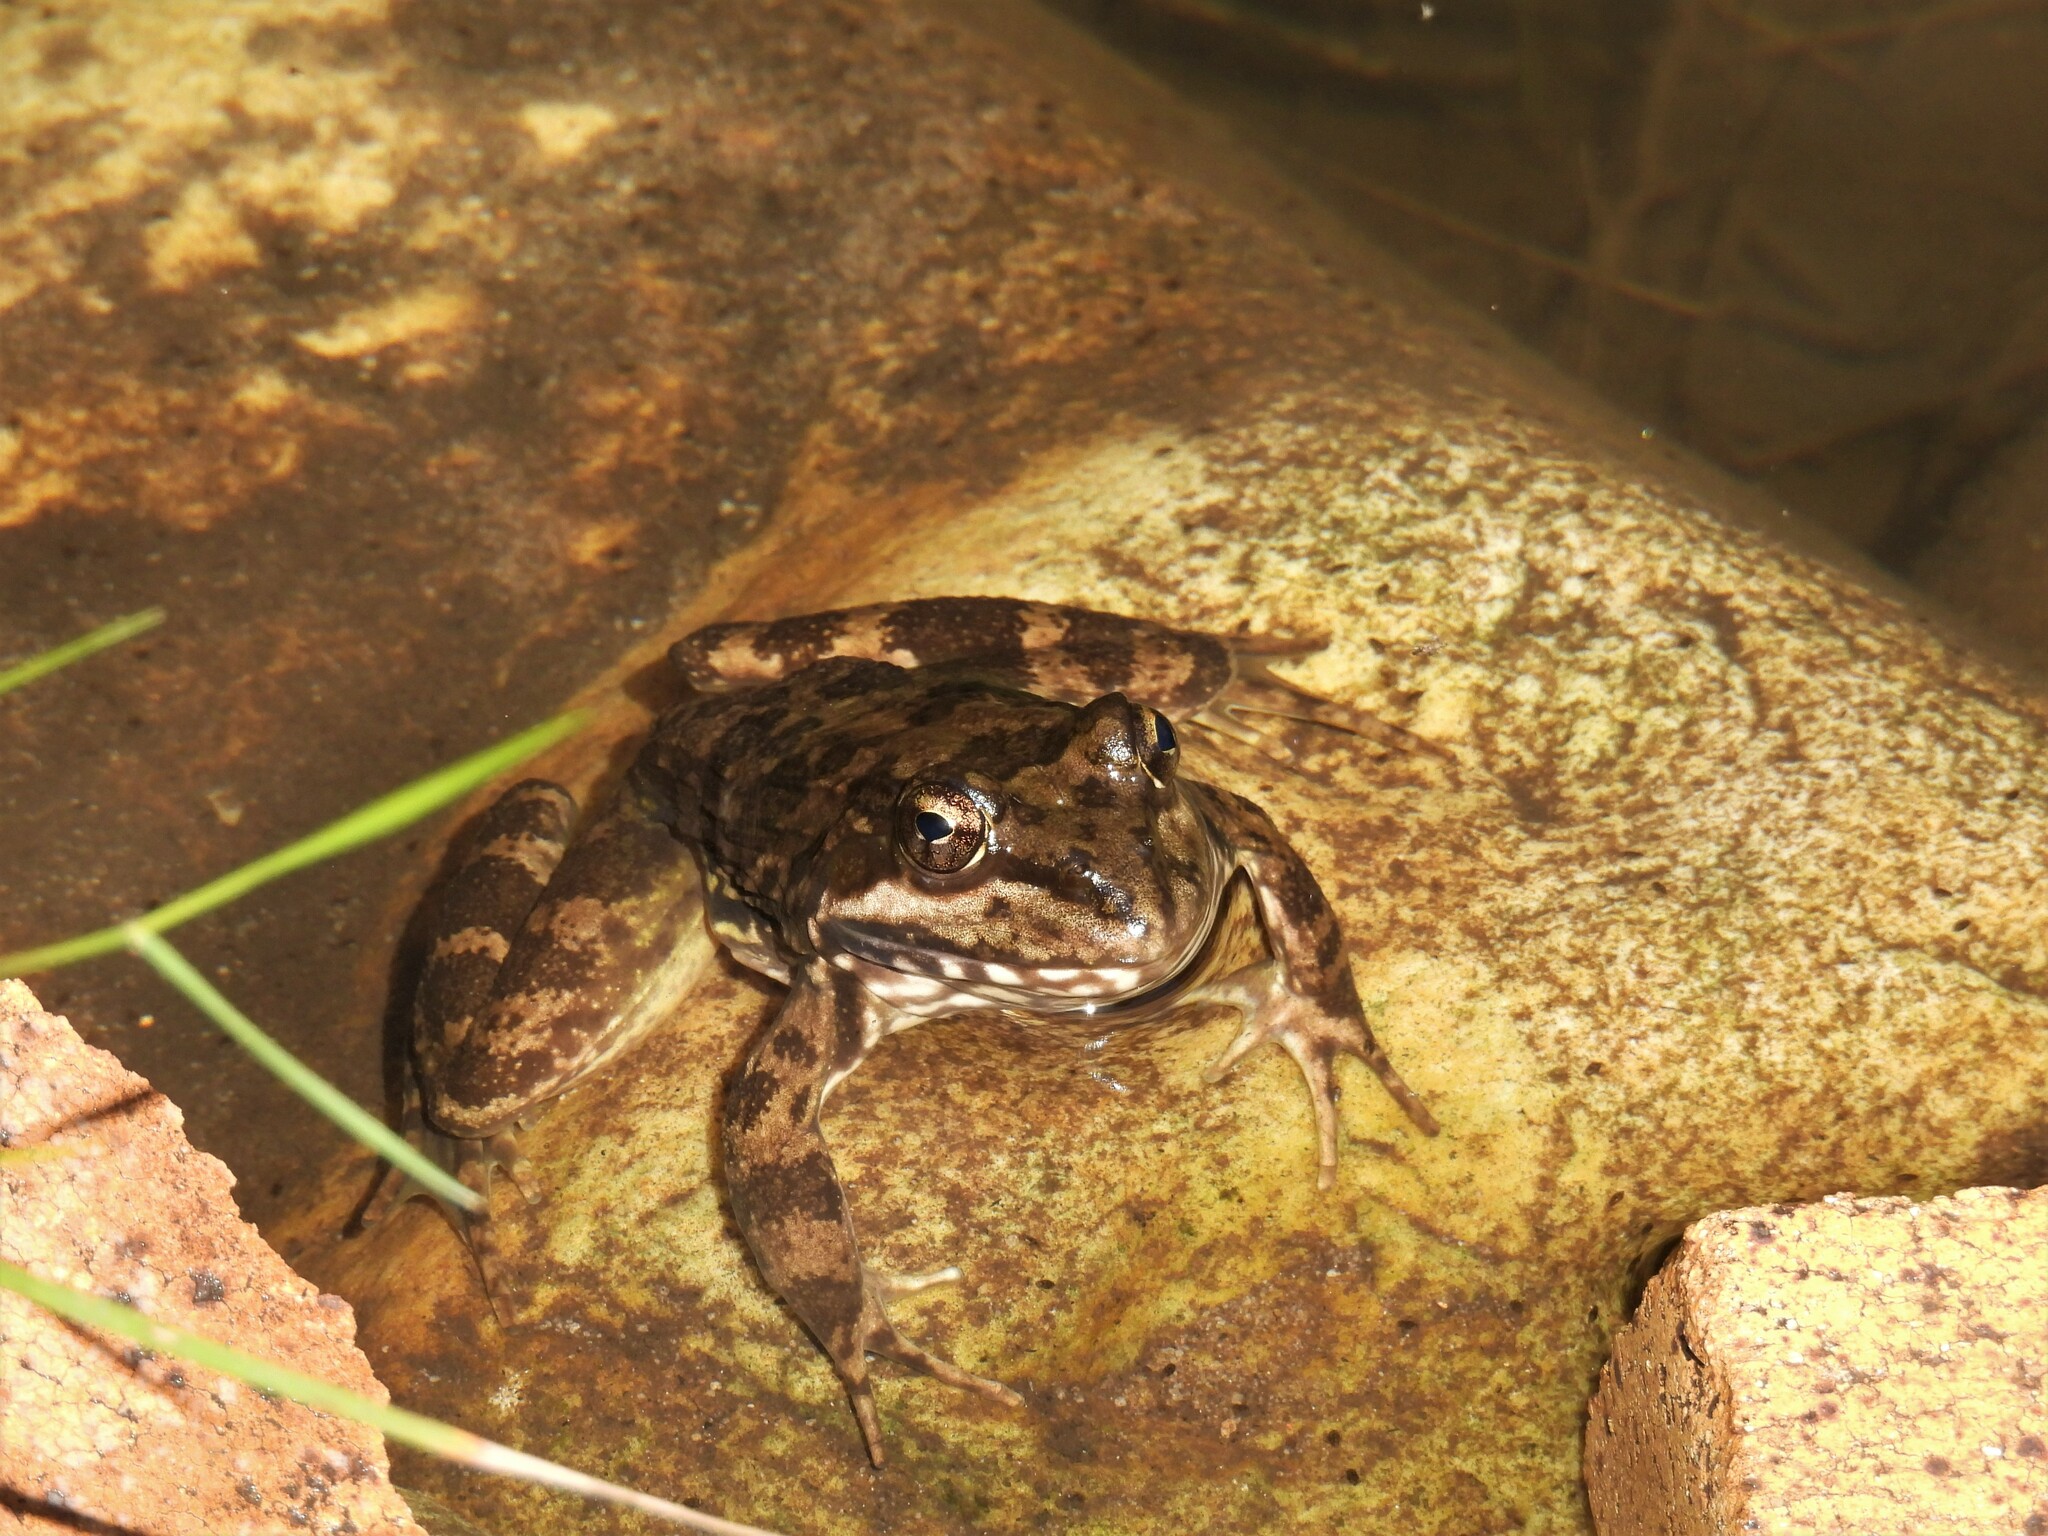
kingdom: Animalia
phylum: Chordata
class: Amphibia
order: Anura
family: Pyxicephalidae
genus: Amietia
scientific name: Amietia fuscigula
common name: Cape rana
